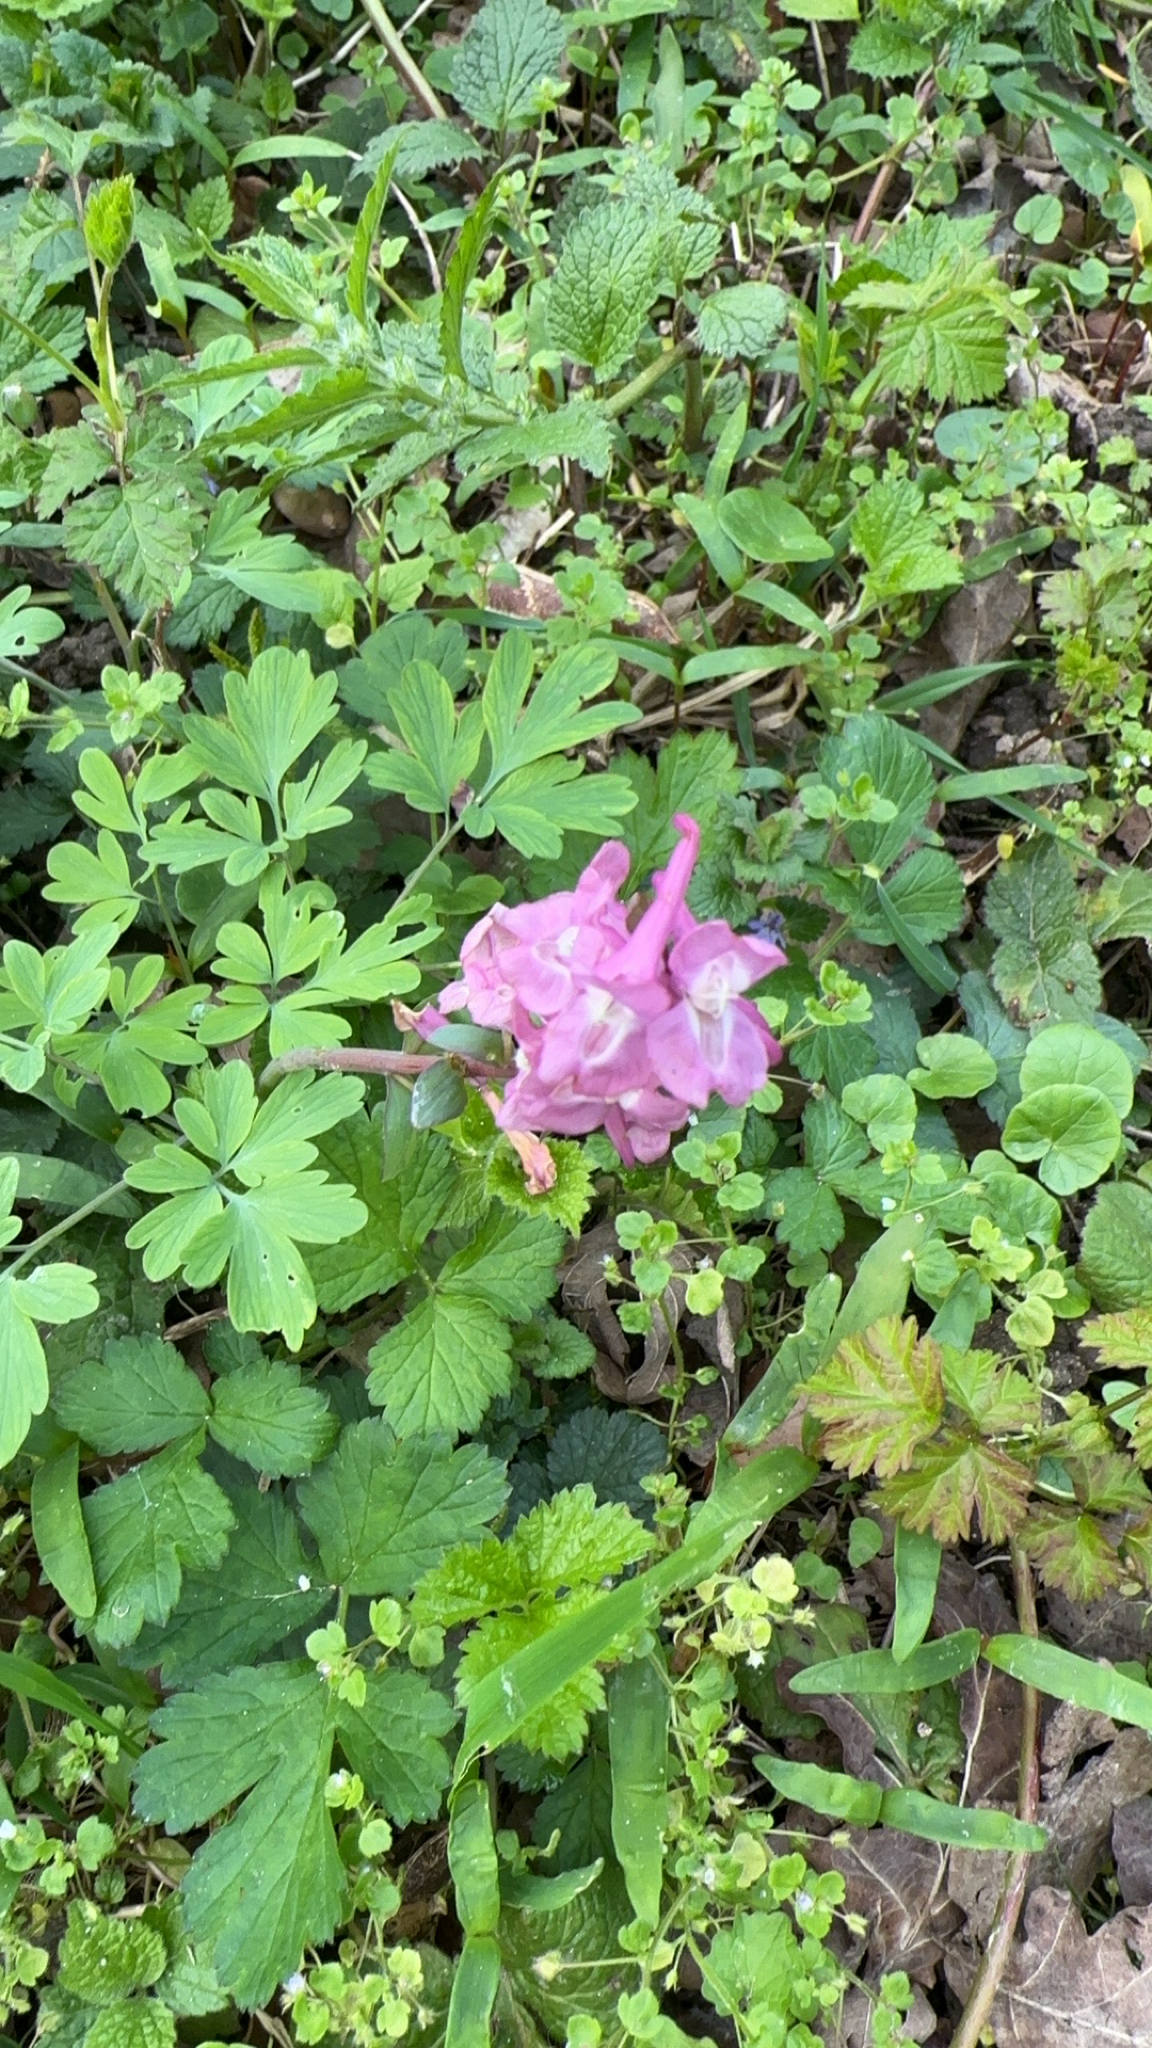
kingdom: Plantae
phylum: Tracheophyta
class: Magnoliopsida
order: Ranunculales
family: Papaveraceae
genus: Corydalis
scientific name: Corydalis cava
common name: Hollowroot
